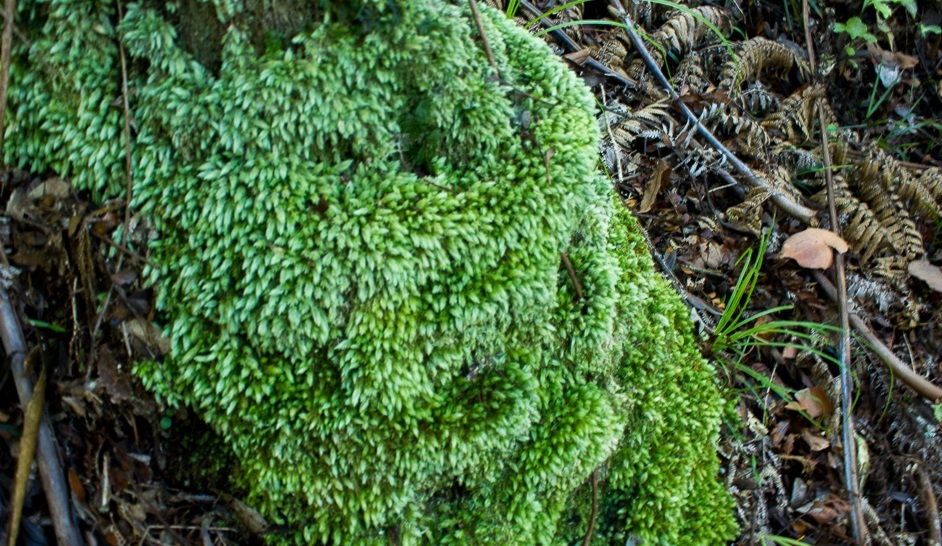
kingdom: Plantae
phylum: Bryophyta
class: Bryopsida
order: Dicranales
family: Leucobryaceae
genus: Leucobryum
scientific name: Leucobryum javense
